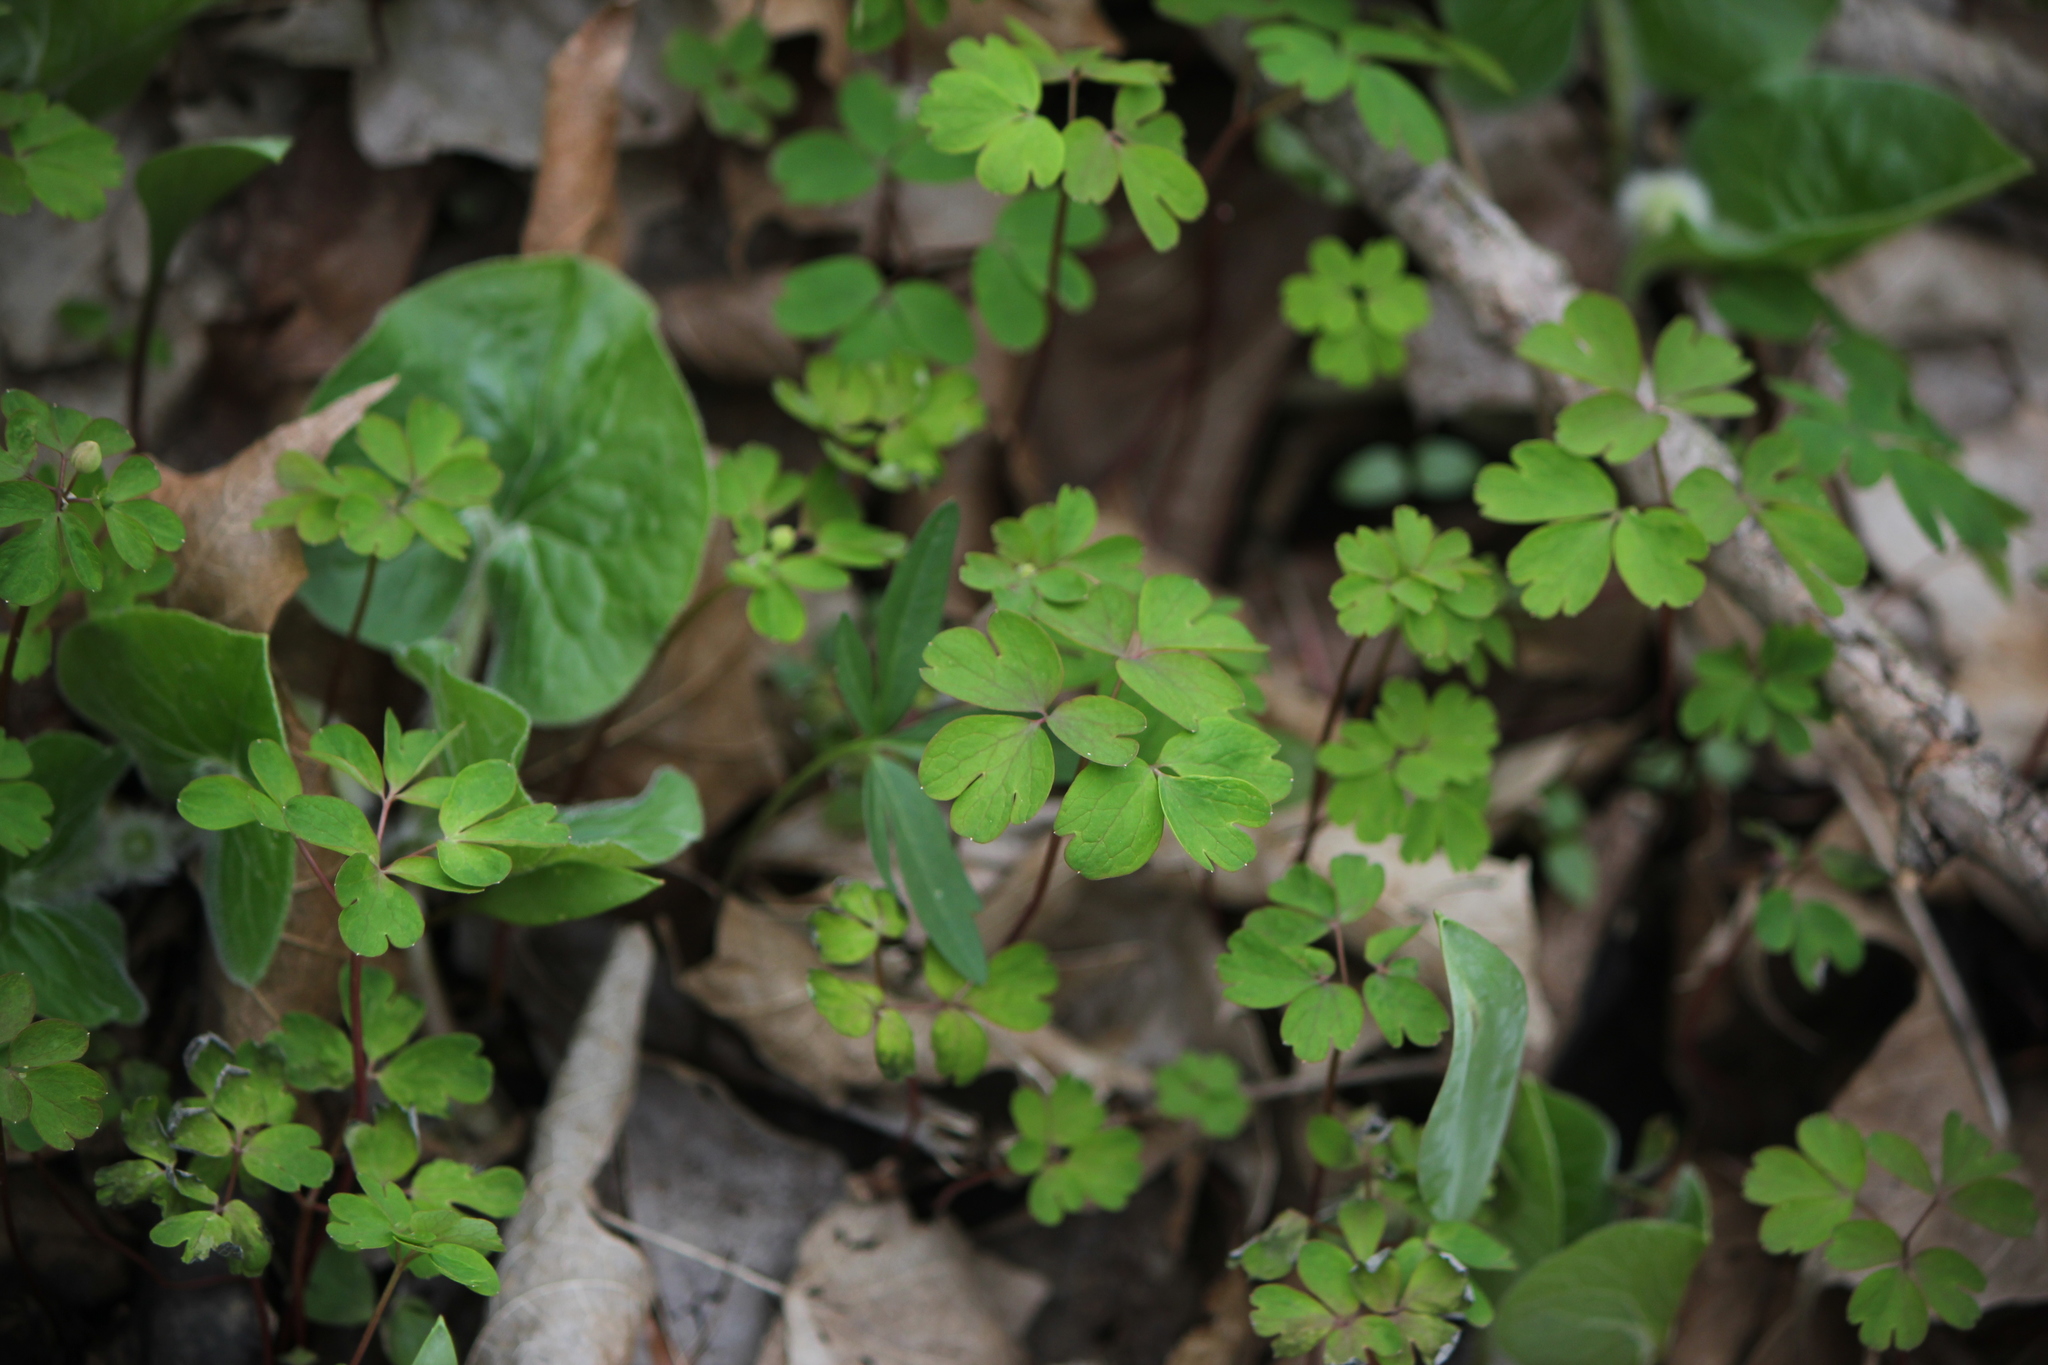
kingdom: Plantae
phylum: Tracheophyta
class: Magnoliopsida
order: Ranunculales
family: Ranunculaceae
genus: Enemion
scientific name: Enemion biternatum
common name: Eastern false rue-anemone
